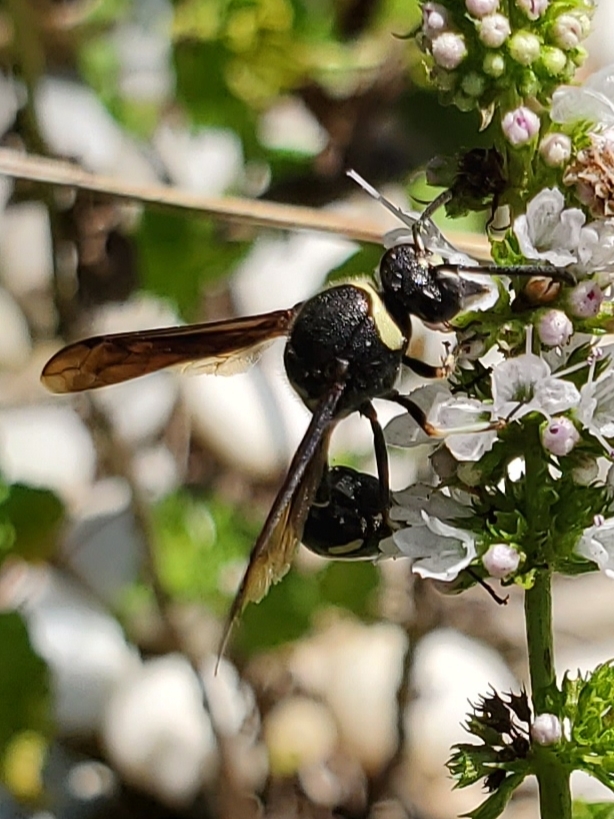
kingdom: Animalia
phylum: Arthropoda
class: Insecta
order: Hymenoptera
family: Vespidae
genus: Eumenes
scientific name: Eumenes fraternus
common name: Fraternal potter wasp
